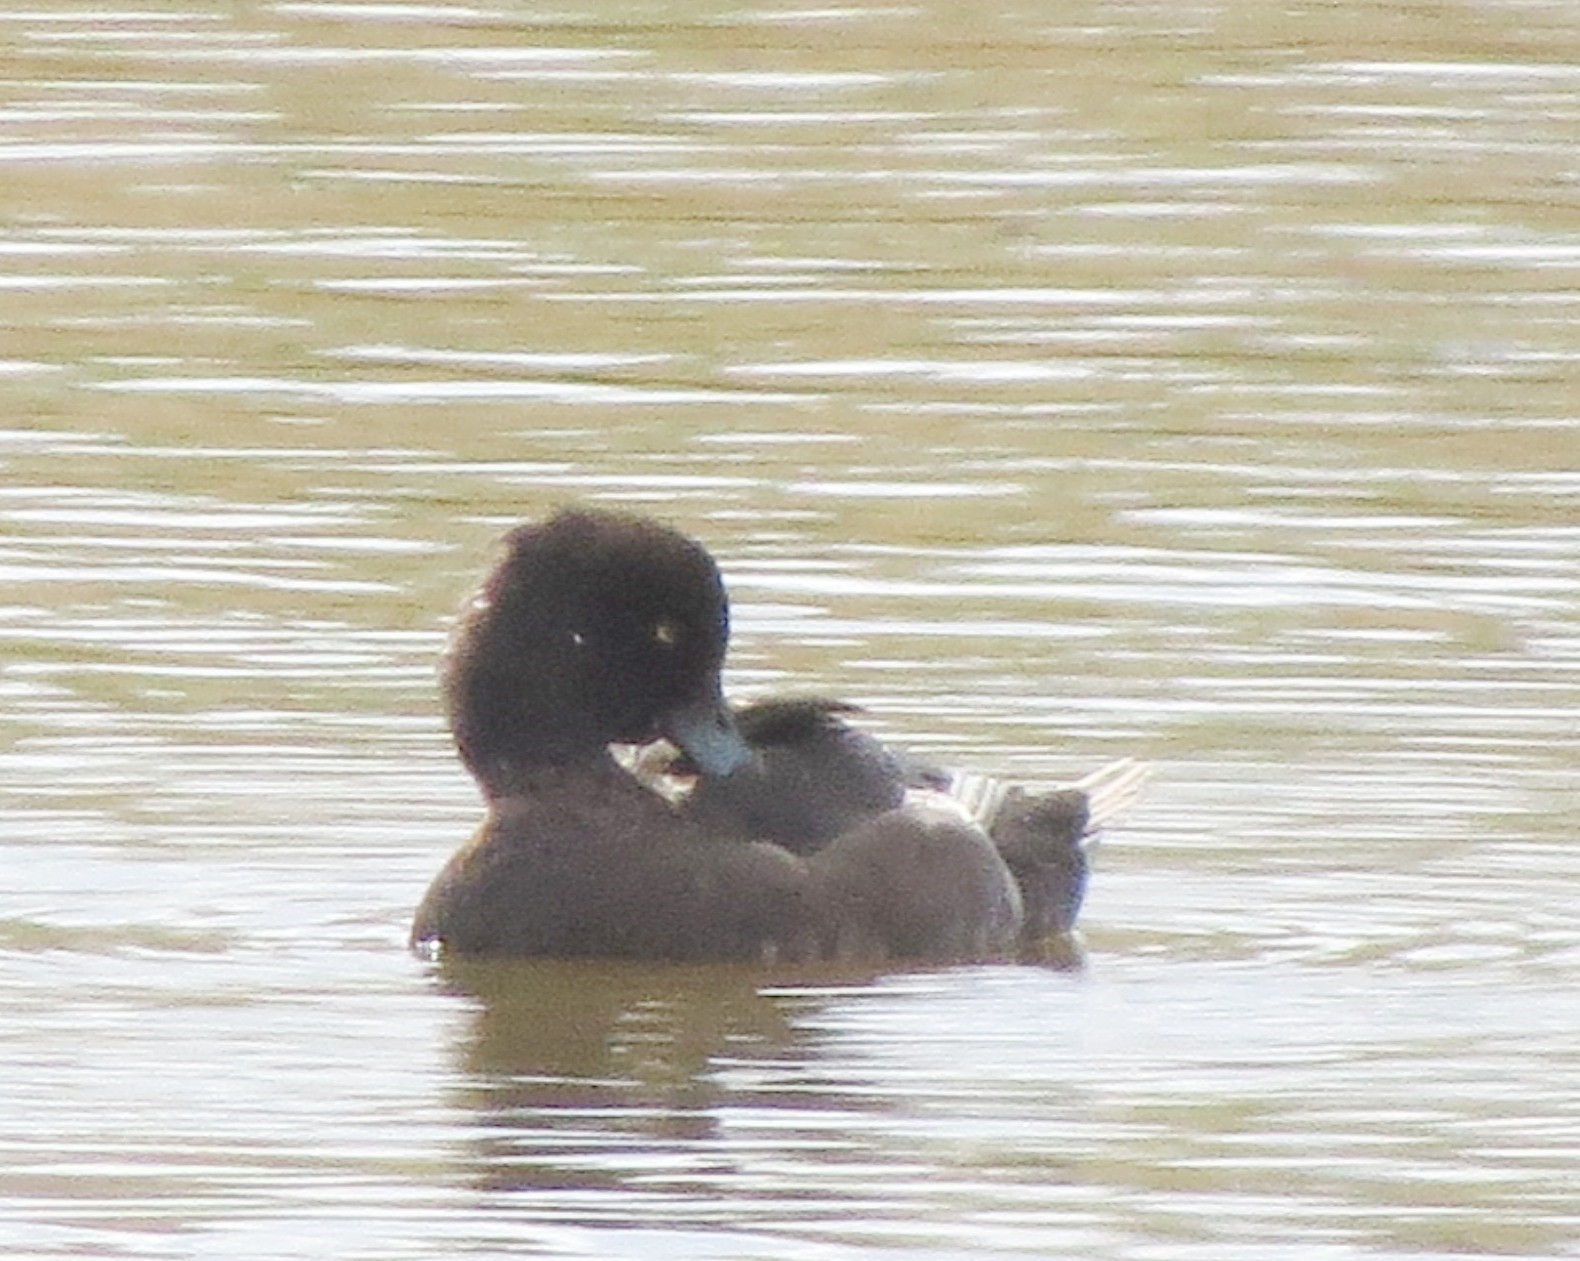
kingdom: Animalia
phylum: Chordata
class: Aves
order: Anseriformes
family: Anatidae
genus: Aythya
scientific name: Aythya fuligula
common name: Tufted duck
